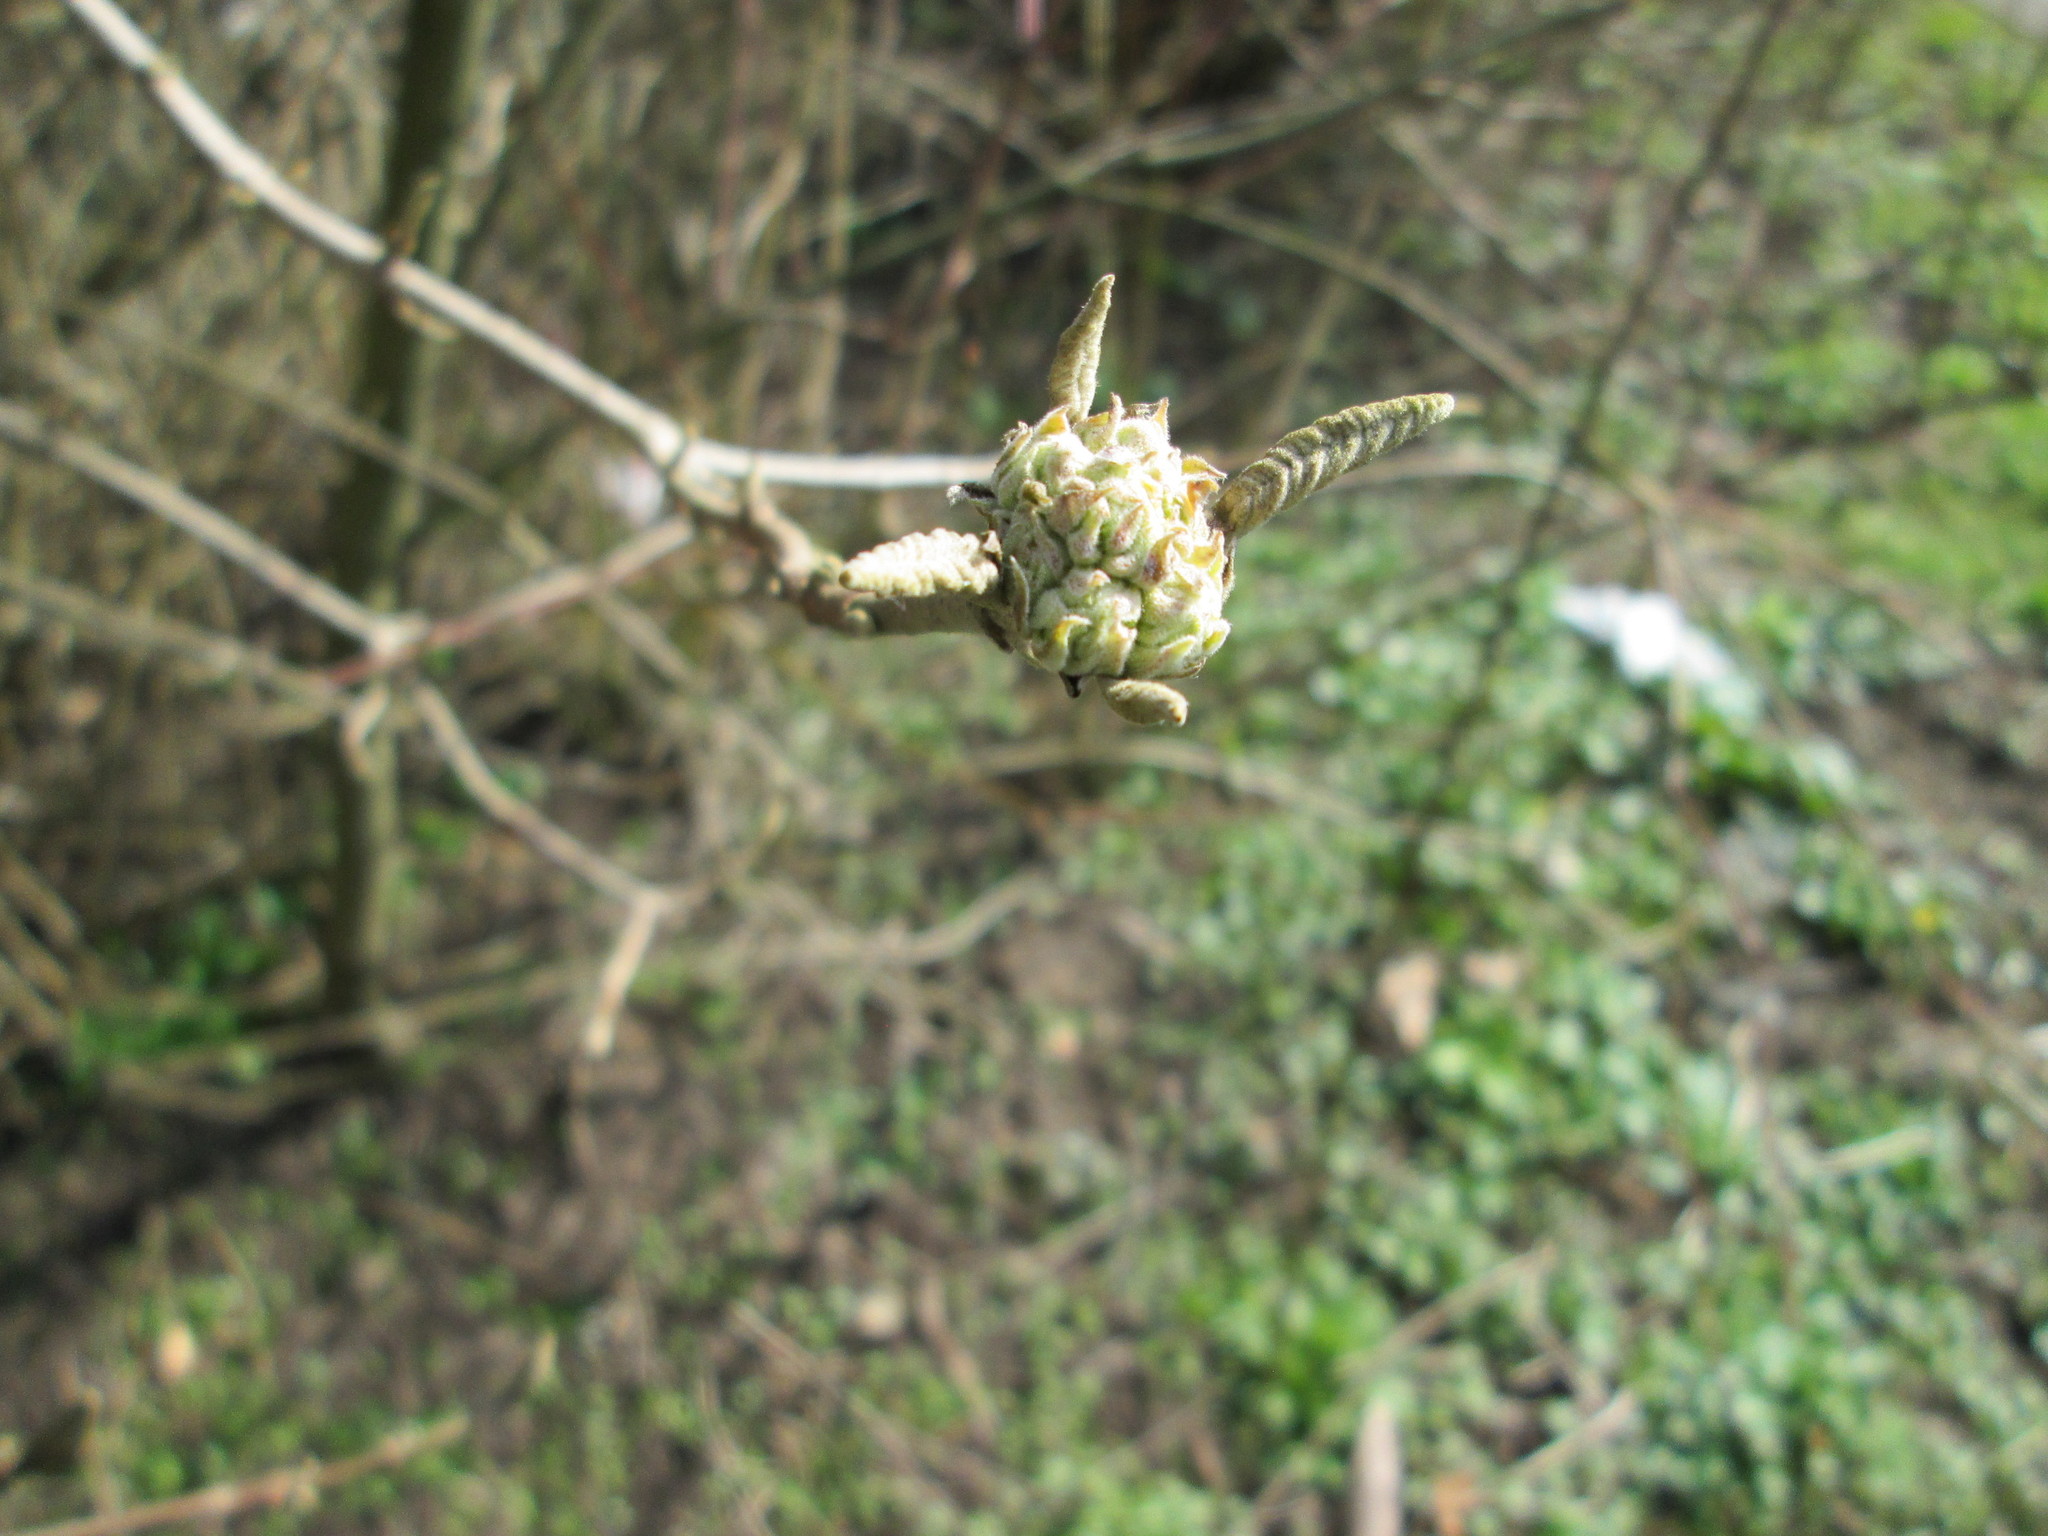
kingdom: Plantae
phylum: Tracheophyta
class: Magnoliopsida
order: Dipsacales
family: Viburnaceae
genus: Viburnum
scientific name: Viburnum lantana
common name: Wayfaring tree
